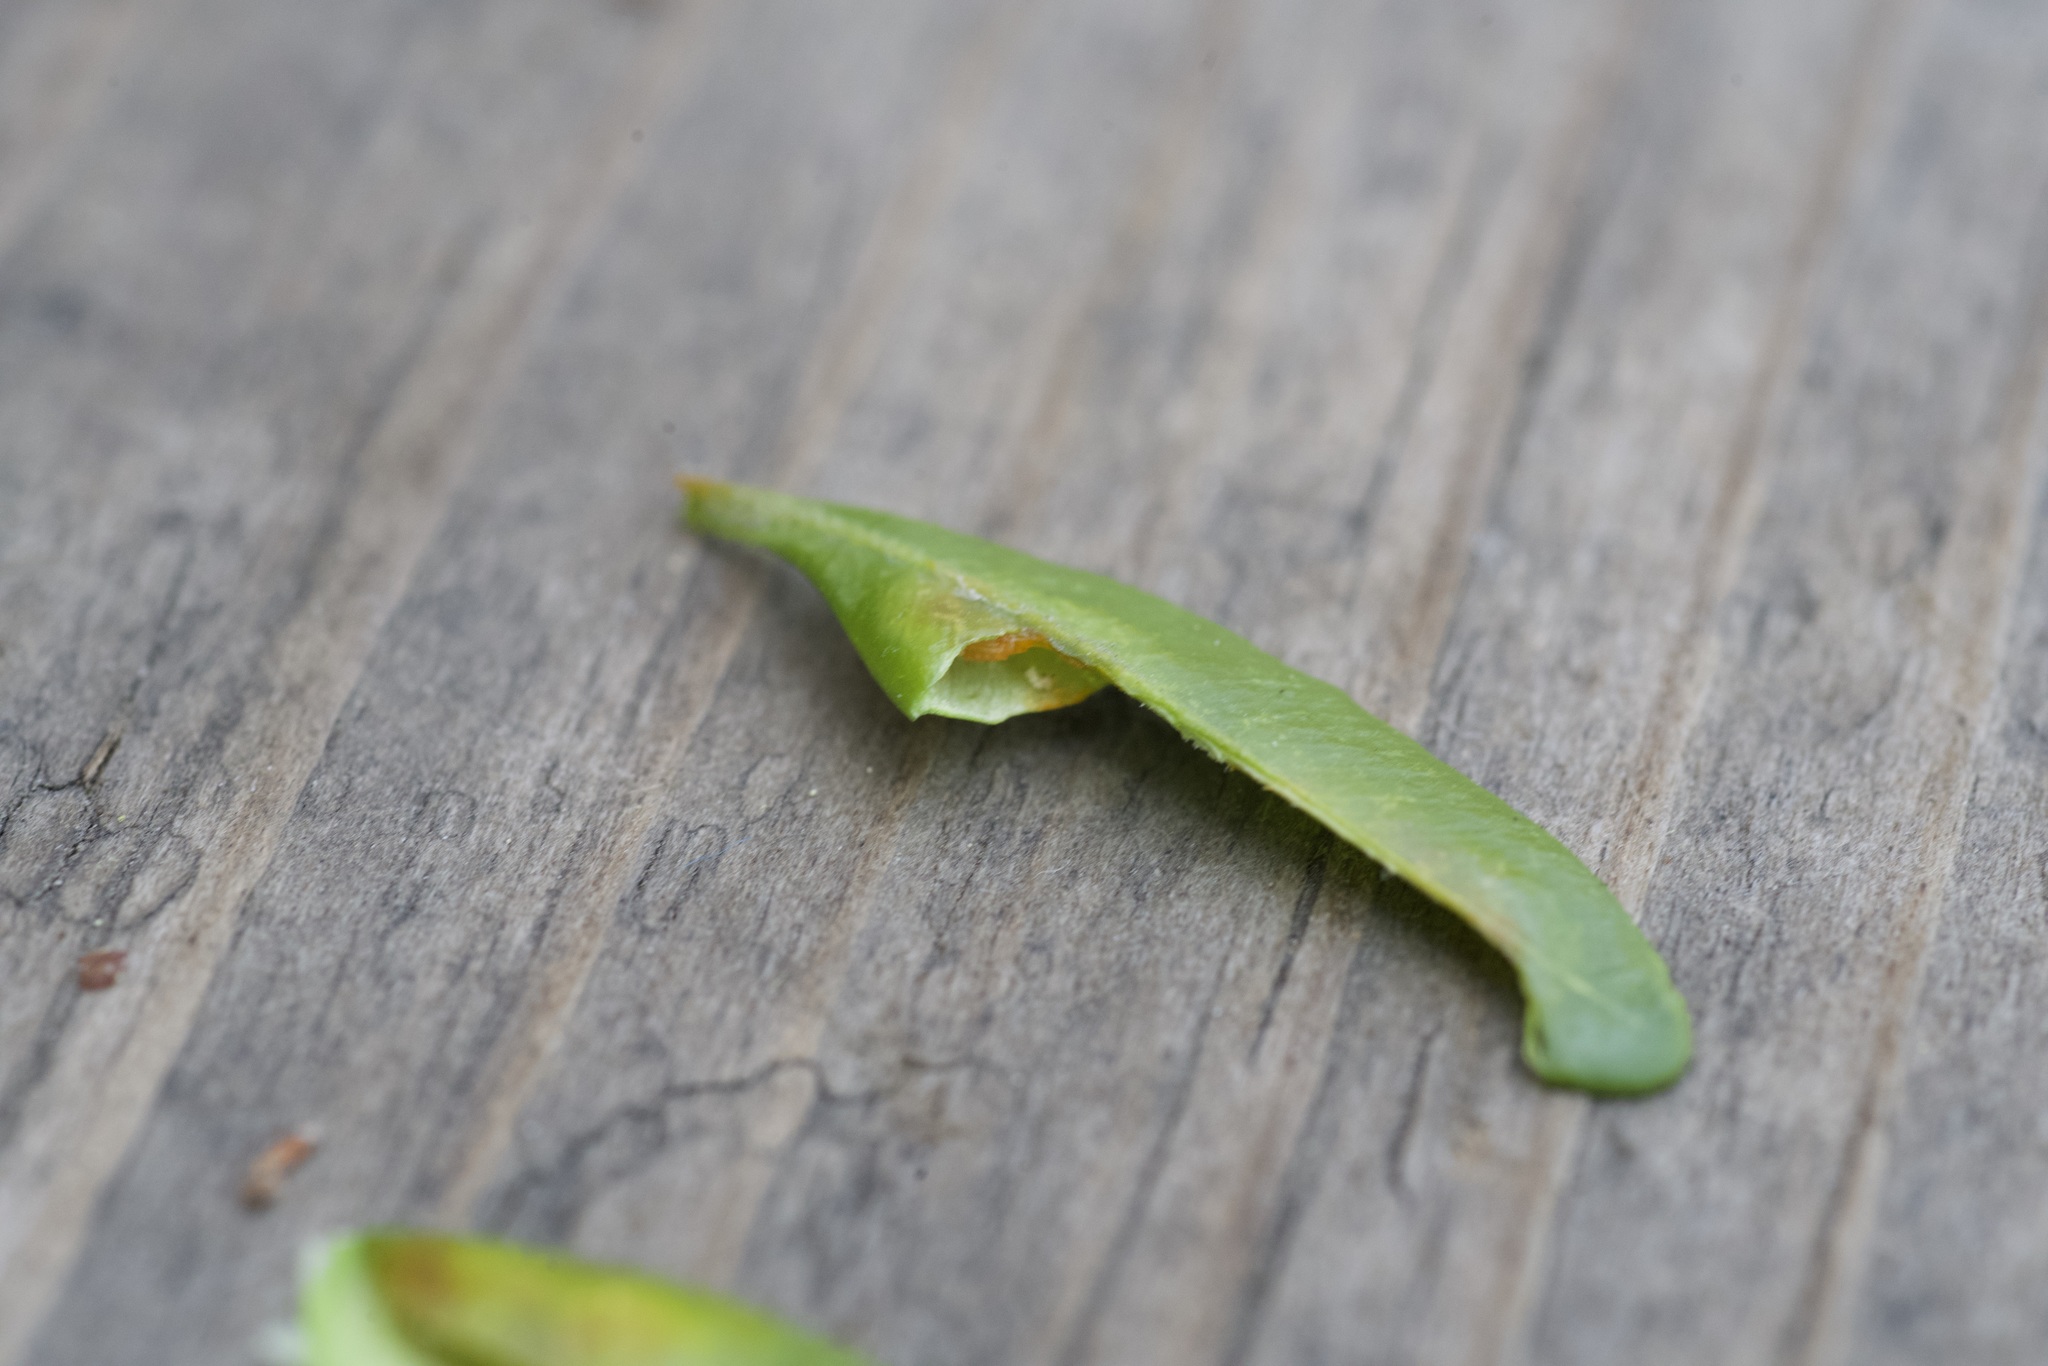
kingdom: Animalia
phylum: Arthropoda
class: Insecta
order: Diptera
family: Cecidomyiidae
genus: Monarthropalpus
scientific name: Monarthropalpus flavus
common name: Boxwood leafminer
